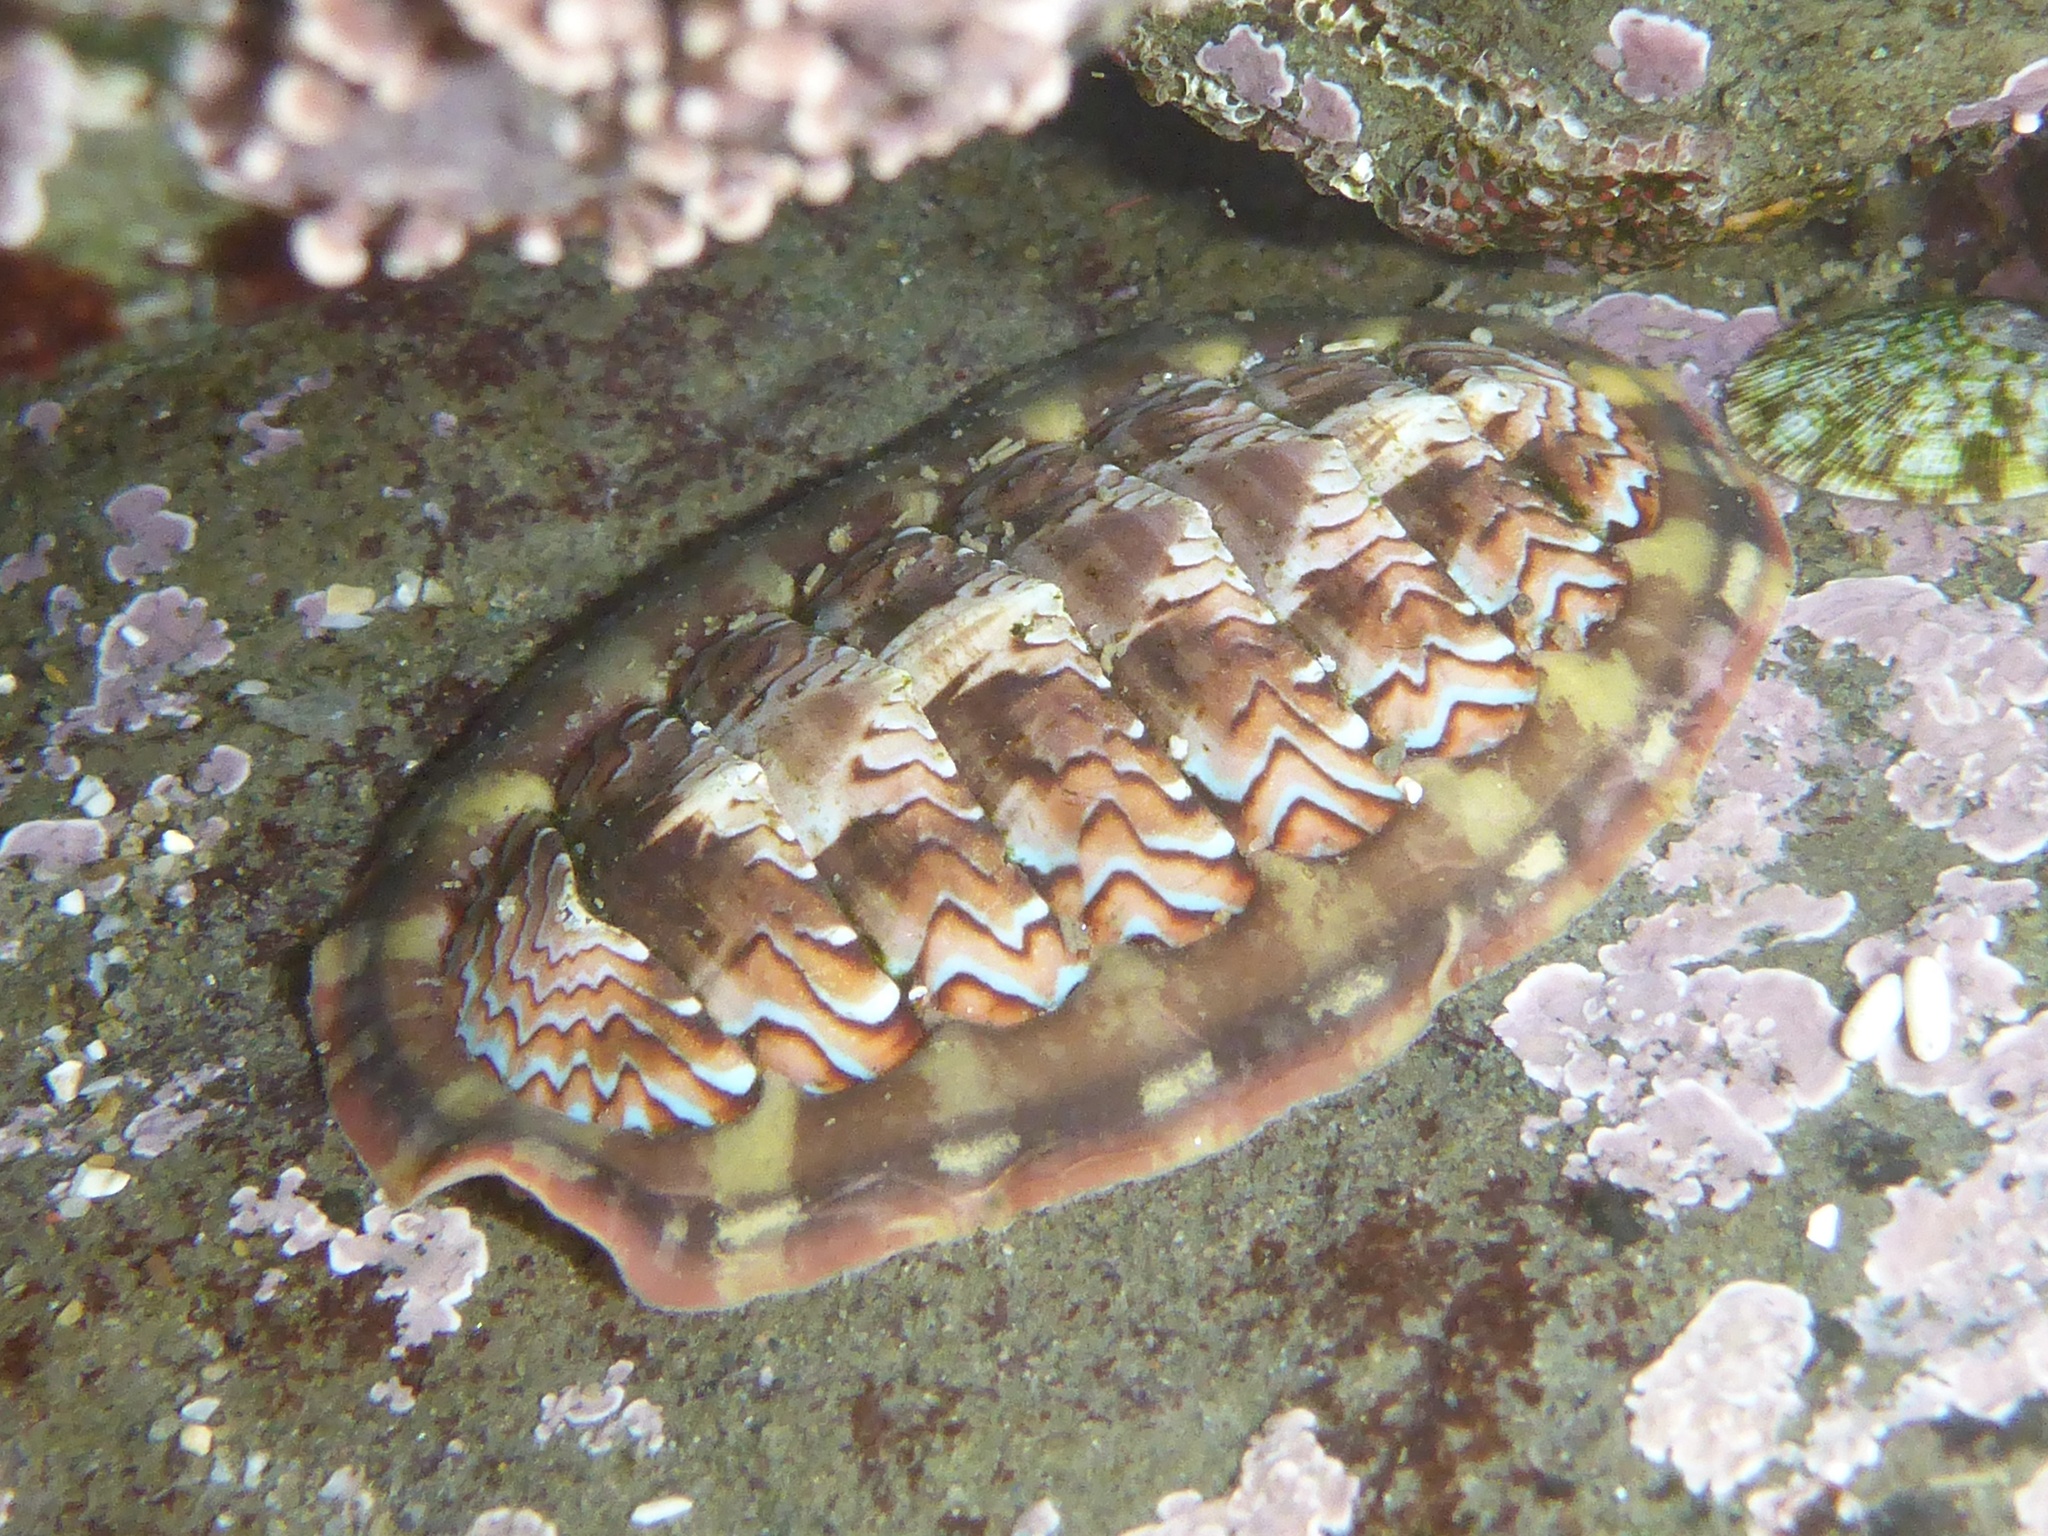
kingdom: Animalia
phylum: Mollusca
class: Polyplacophora
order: Chitonida
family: Tonicellidae
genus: Tonicella
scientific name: Tonicella lokii
